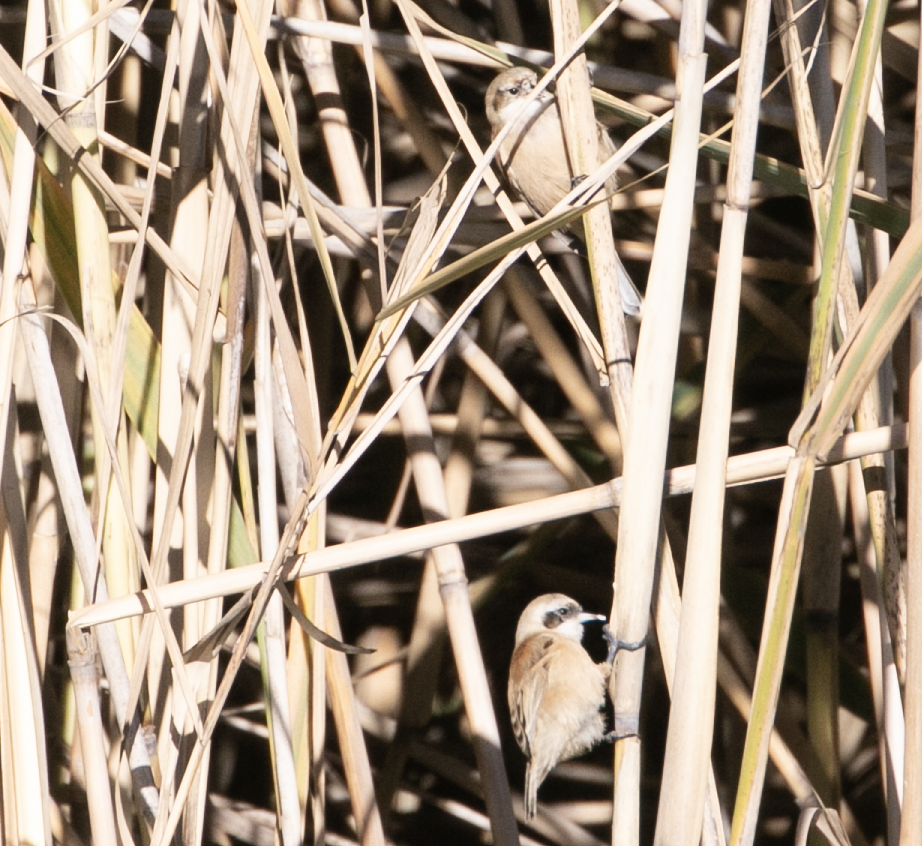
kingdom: Animalia
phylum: Chordata
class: Aves
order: Passeriformes
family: Remizidae
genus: Remiz
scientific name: Remiz pendulinus
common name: Eurasian penduline tit
